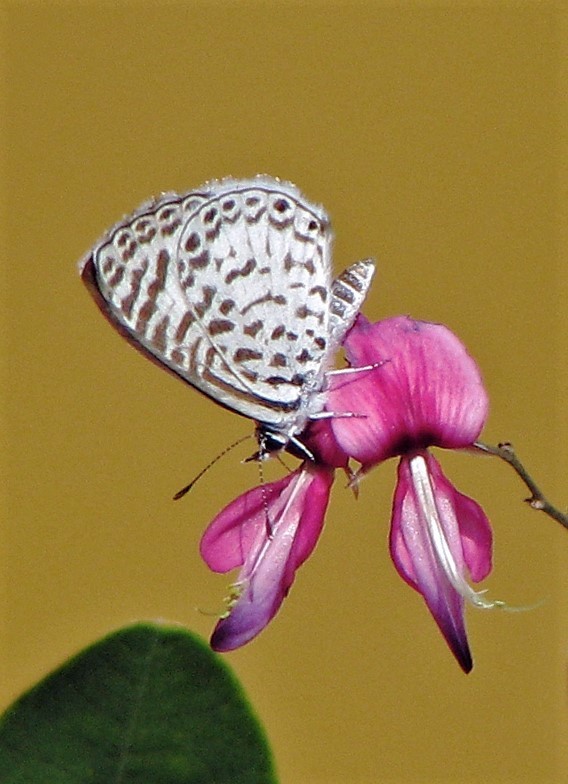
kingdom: Animalia
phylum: Arthropoda
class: Insecta
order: Lepidoptera
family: Lycaenidae
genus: Leptotes
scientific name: Leptotes cassius
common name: Cassius blue
